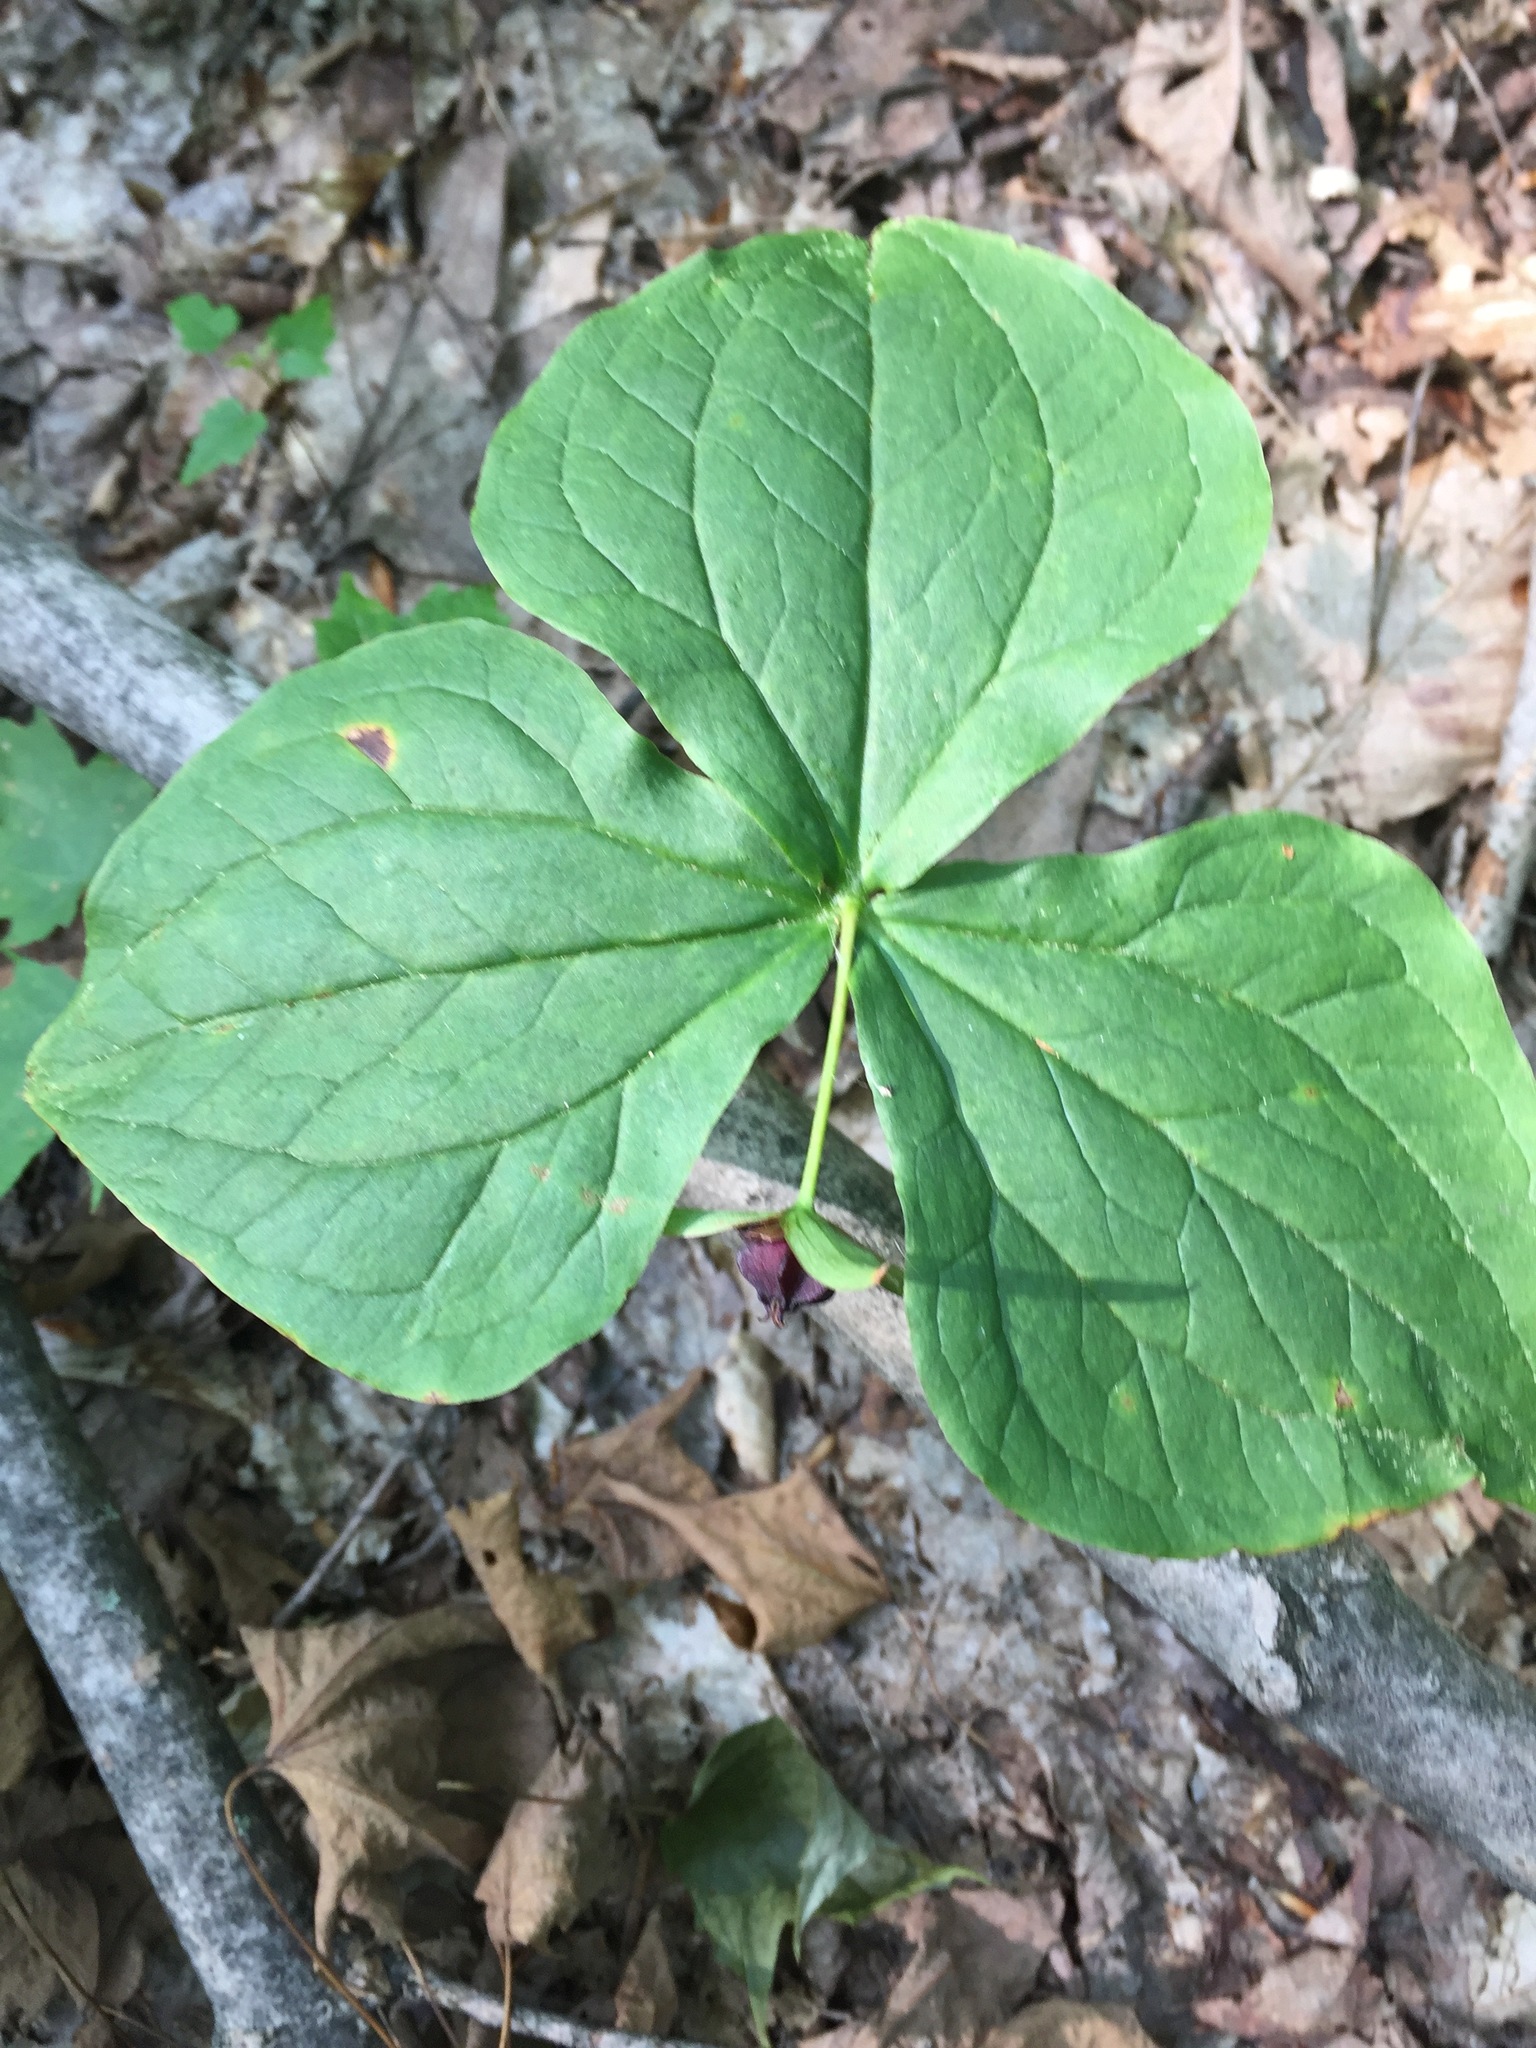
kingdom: Plantae
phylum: Tracheophyta
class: Liliopsida
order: Liliales
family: Melanthiaceae
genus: Trillium
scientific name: Trillium erectum
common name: Purple trillium
